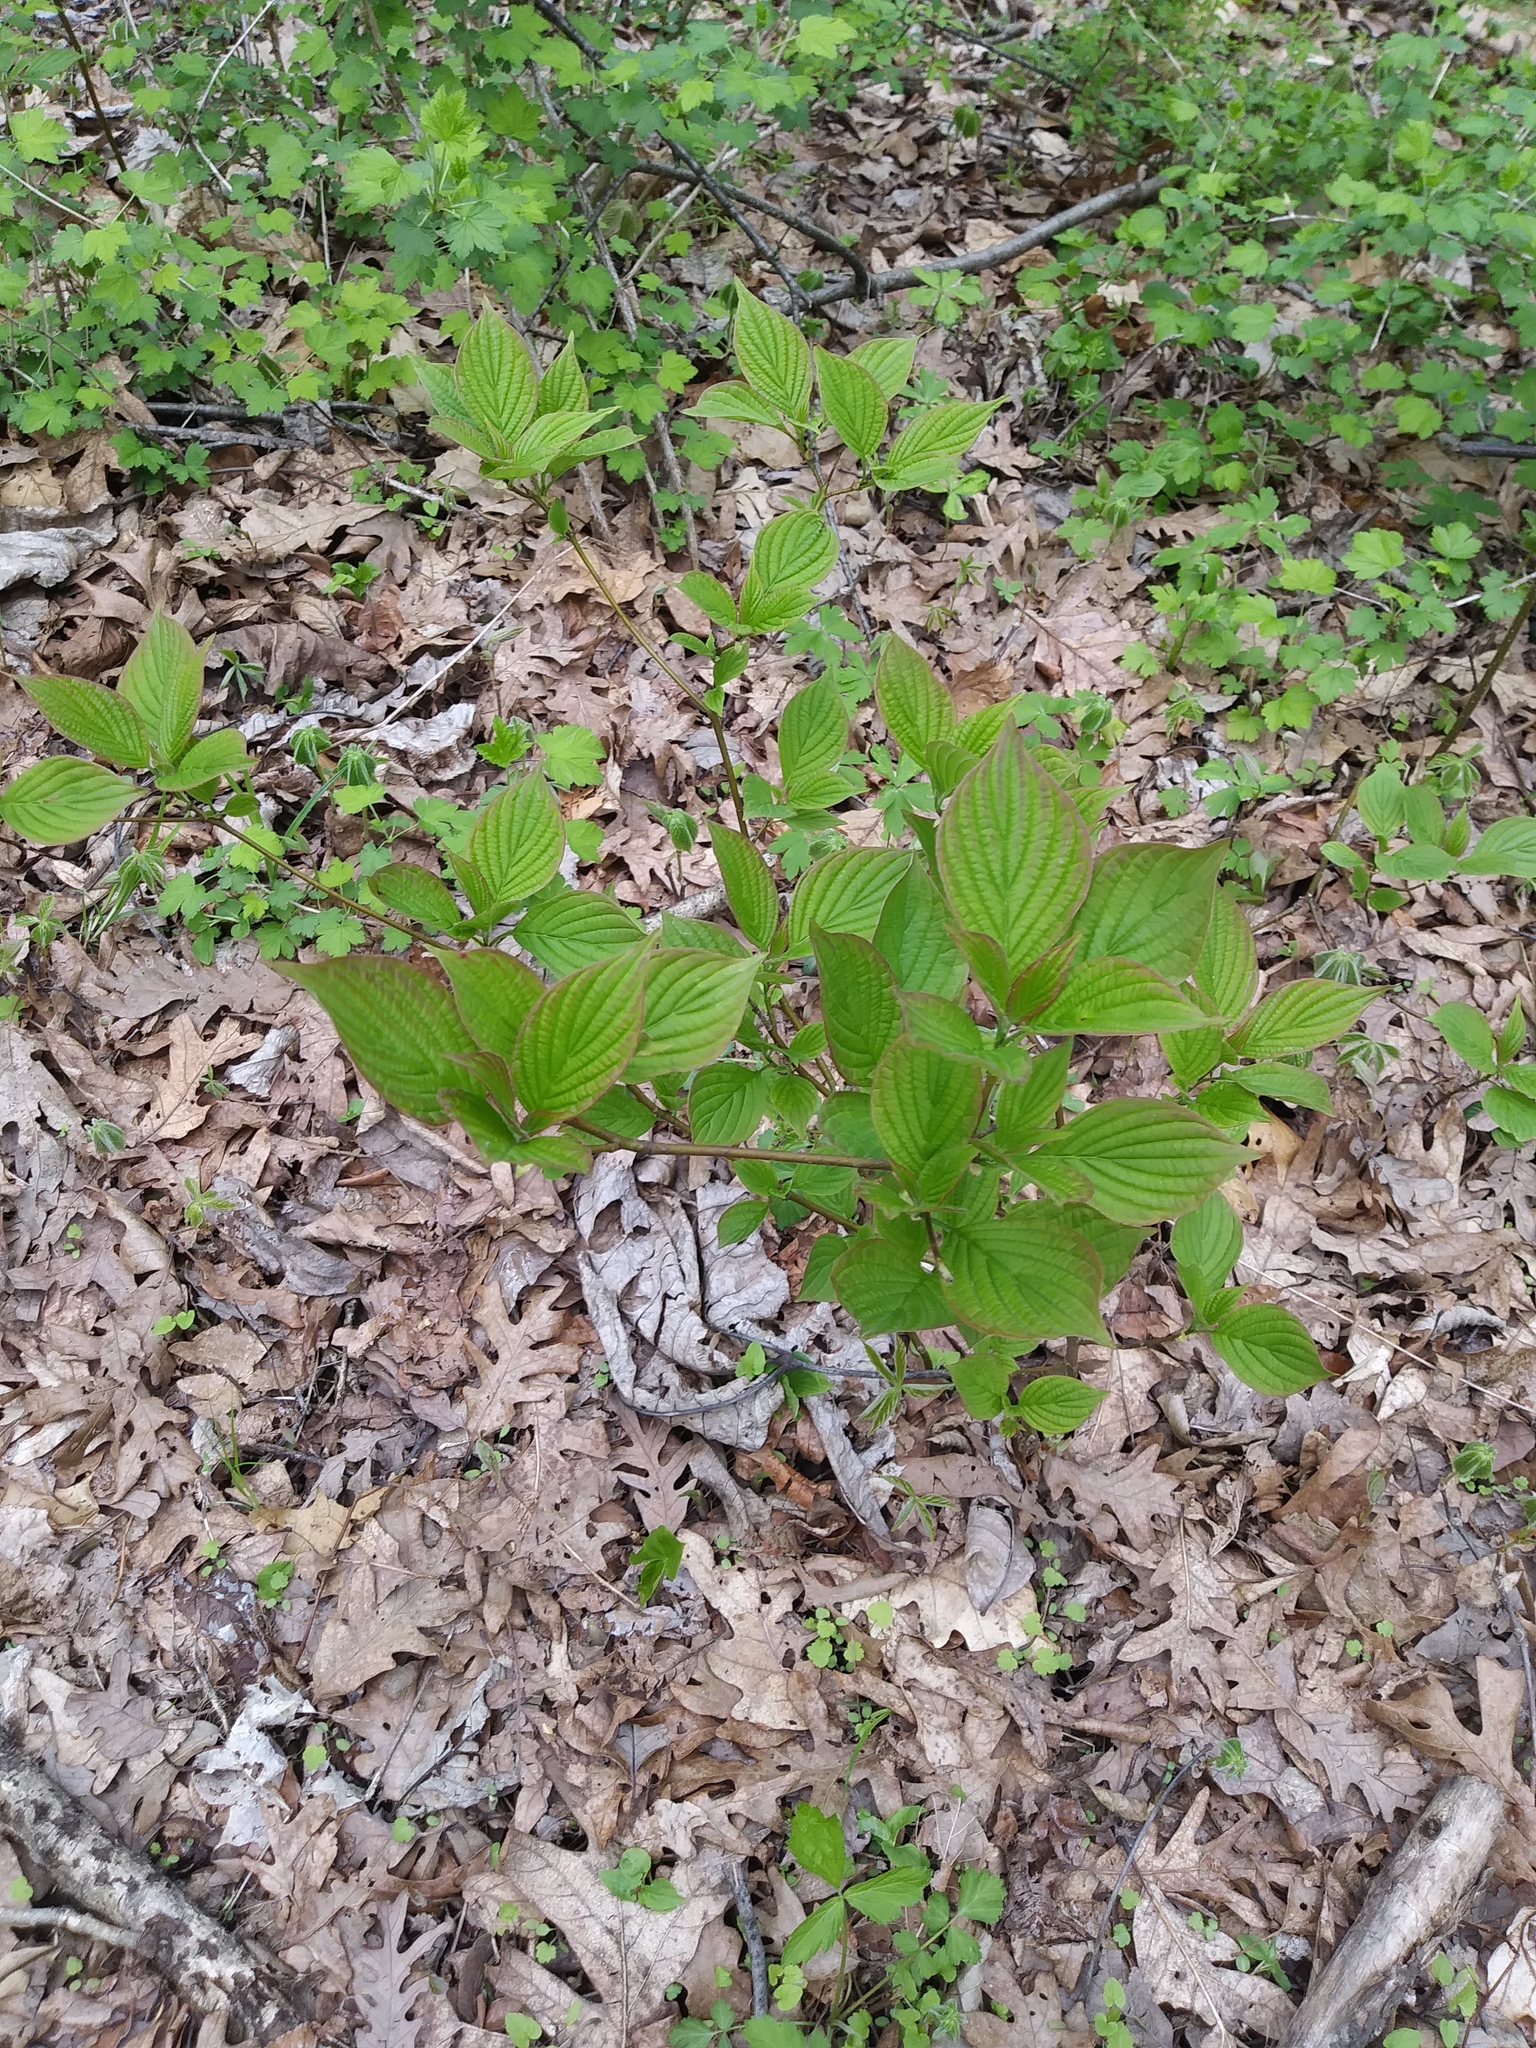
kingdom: Plantae
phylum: Tracheophyta
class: Magnoliopsida
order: Cornales
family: Cornaceae
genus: Cornus
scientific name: Cornus alternifolia
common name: Pagoda dogwood
